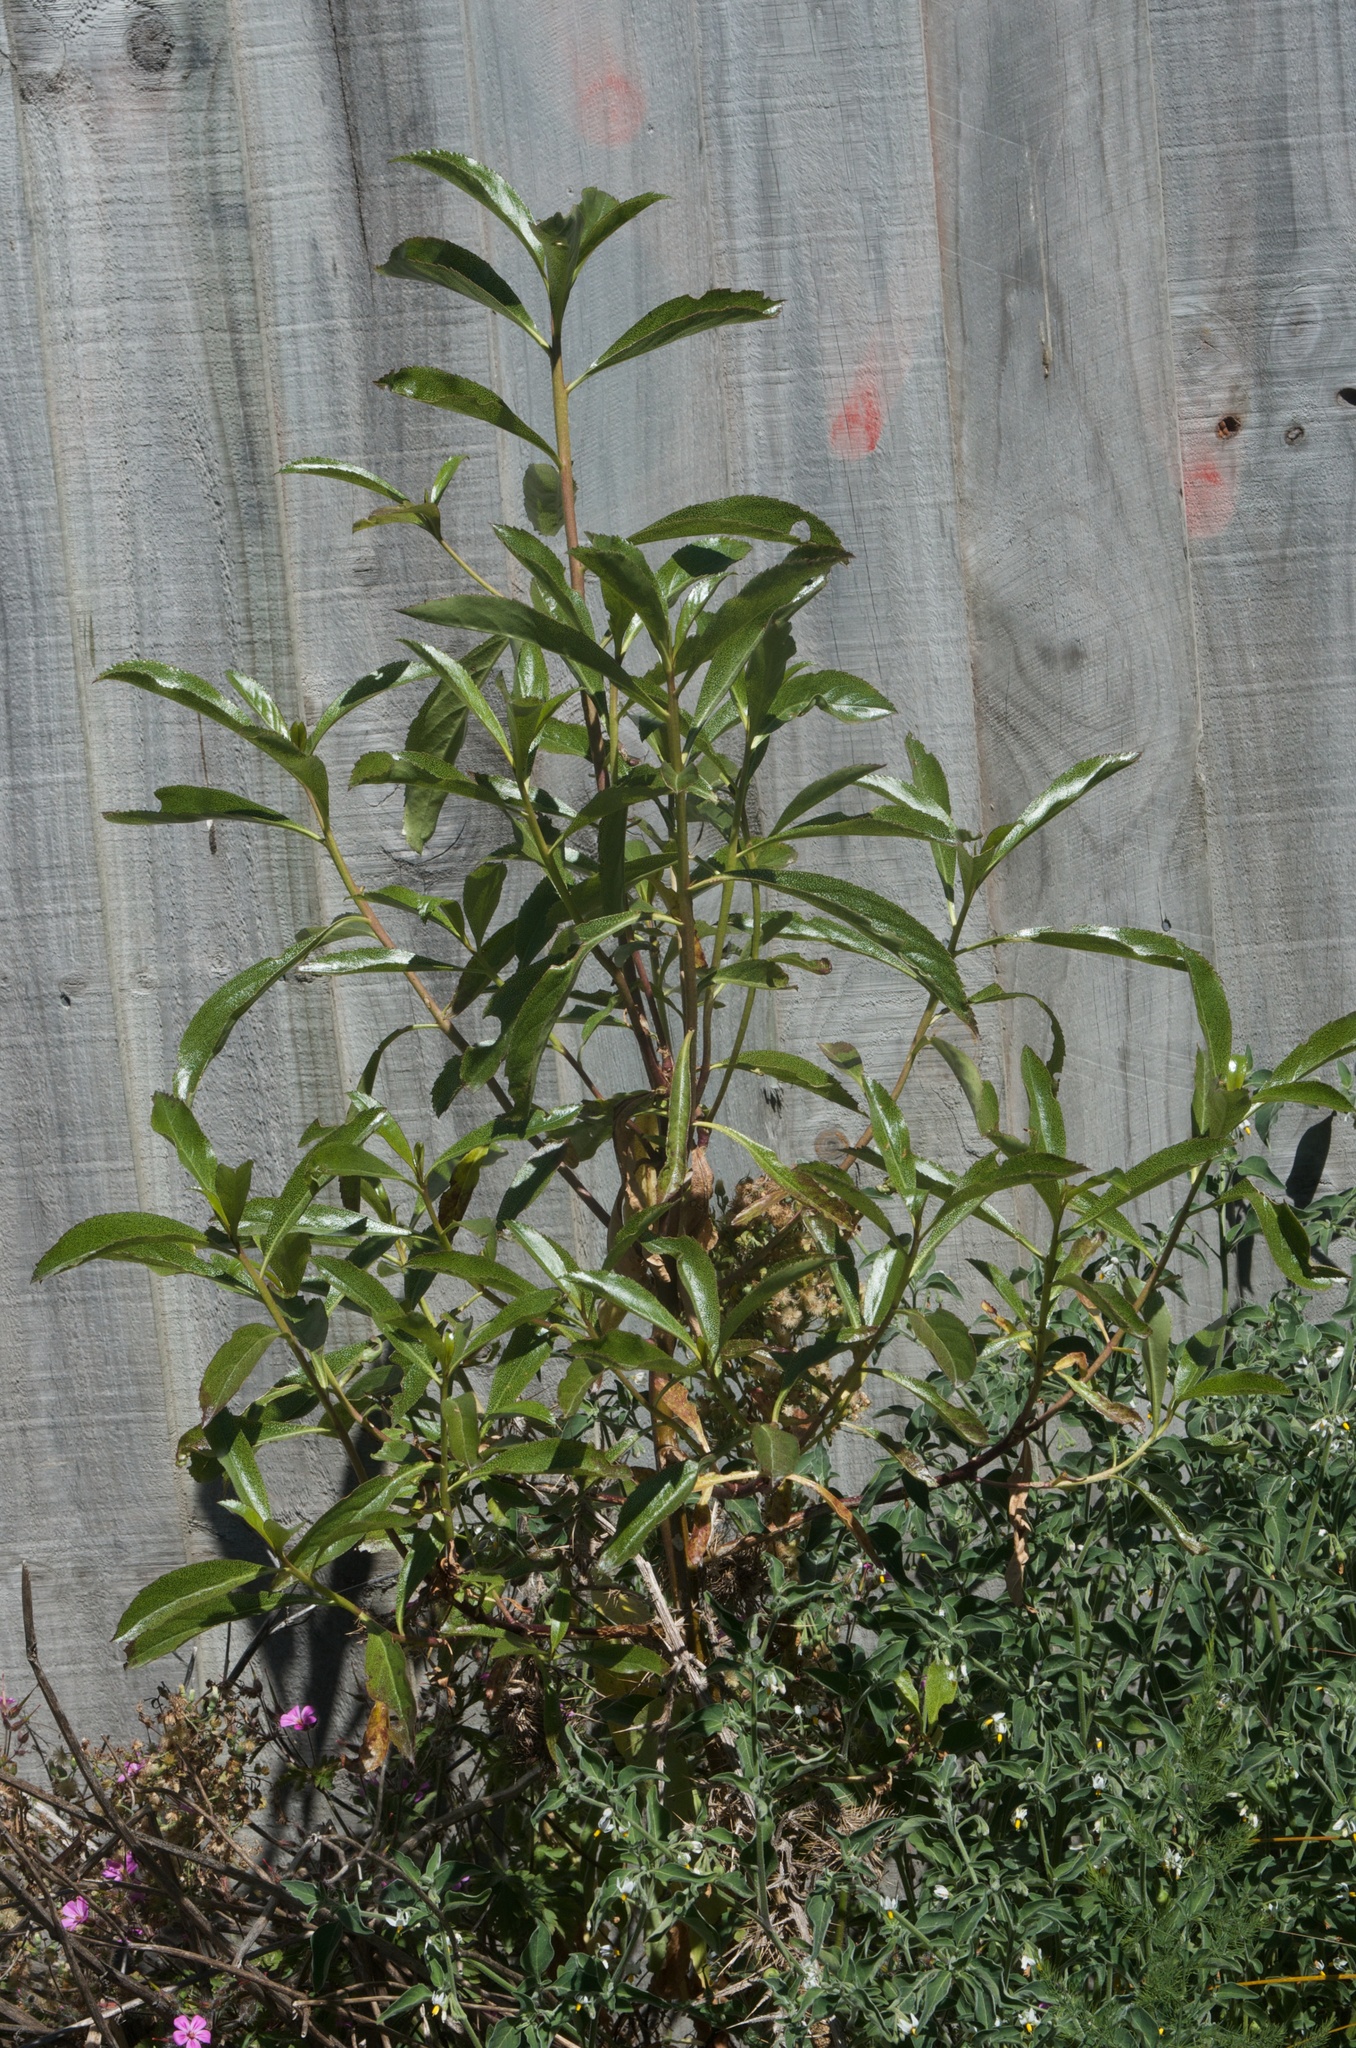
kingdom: Plantae
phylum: Tracheophyta
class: Magnoliopsida
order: Lamiales
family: Scrophulariaceae
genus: Myoporum
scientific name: Myoporum laetum
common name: Ngaio tree
